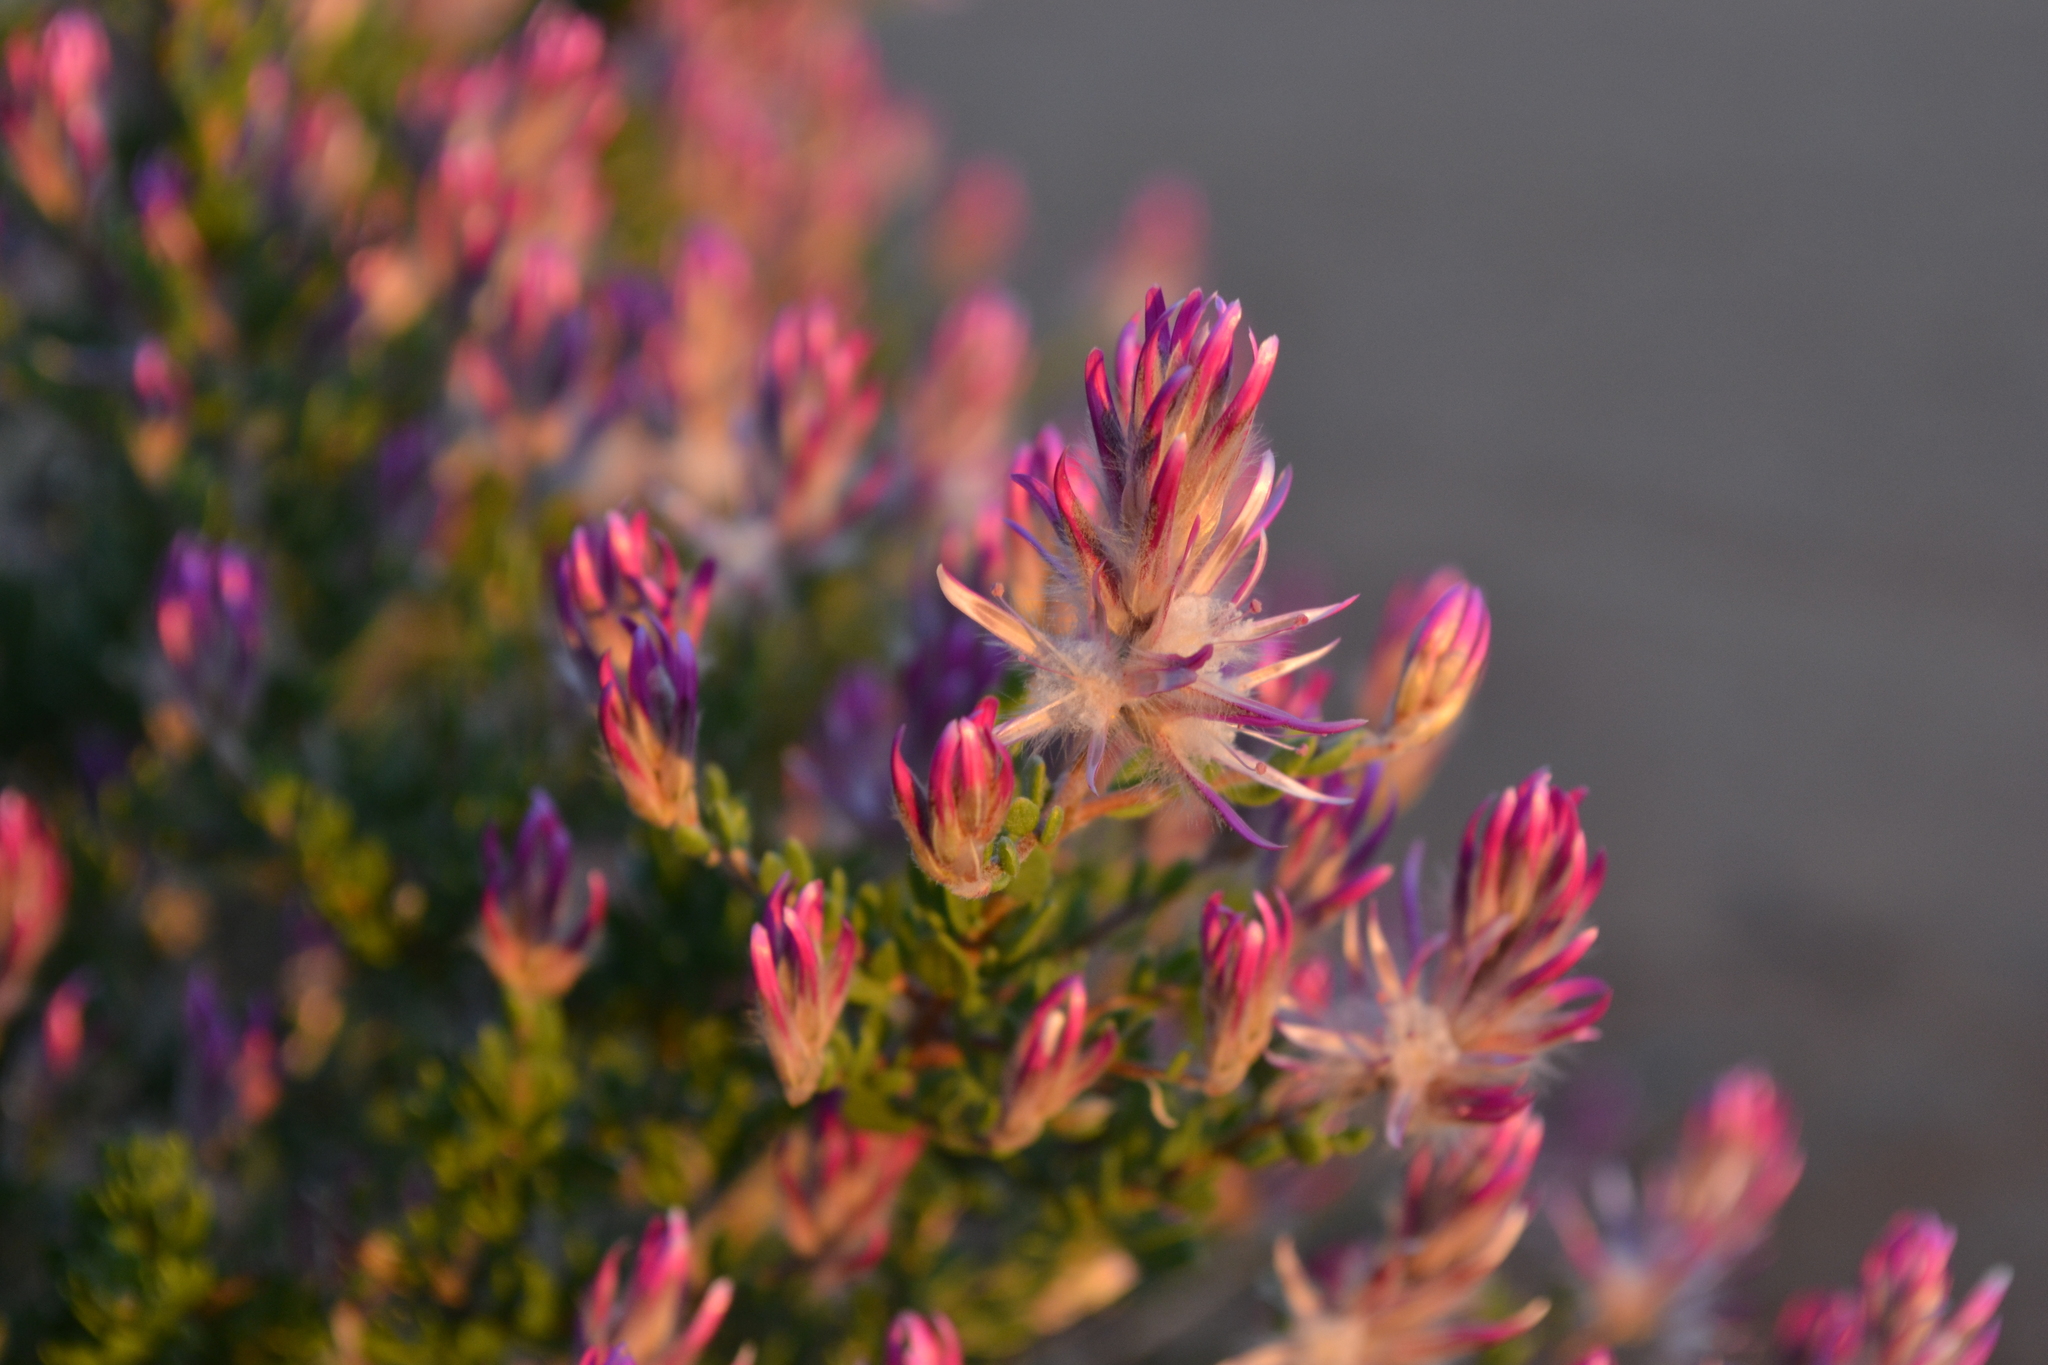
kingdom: Plantae
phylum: Tracheophyta
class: Magnoliopsida
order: Caryophyllales
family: Amaranthaceae
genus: Ptilotus
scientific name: Ptilotus polakii
